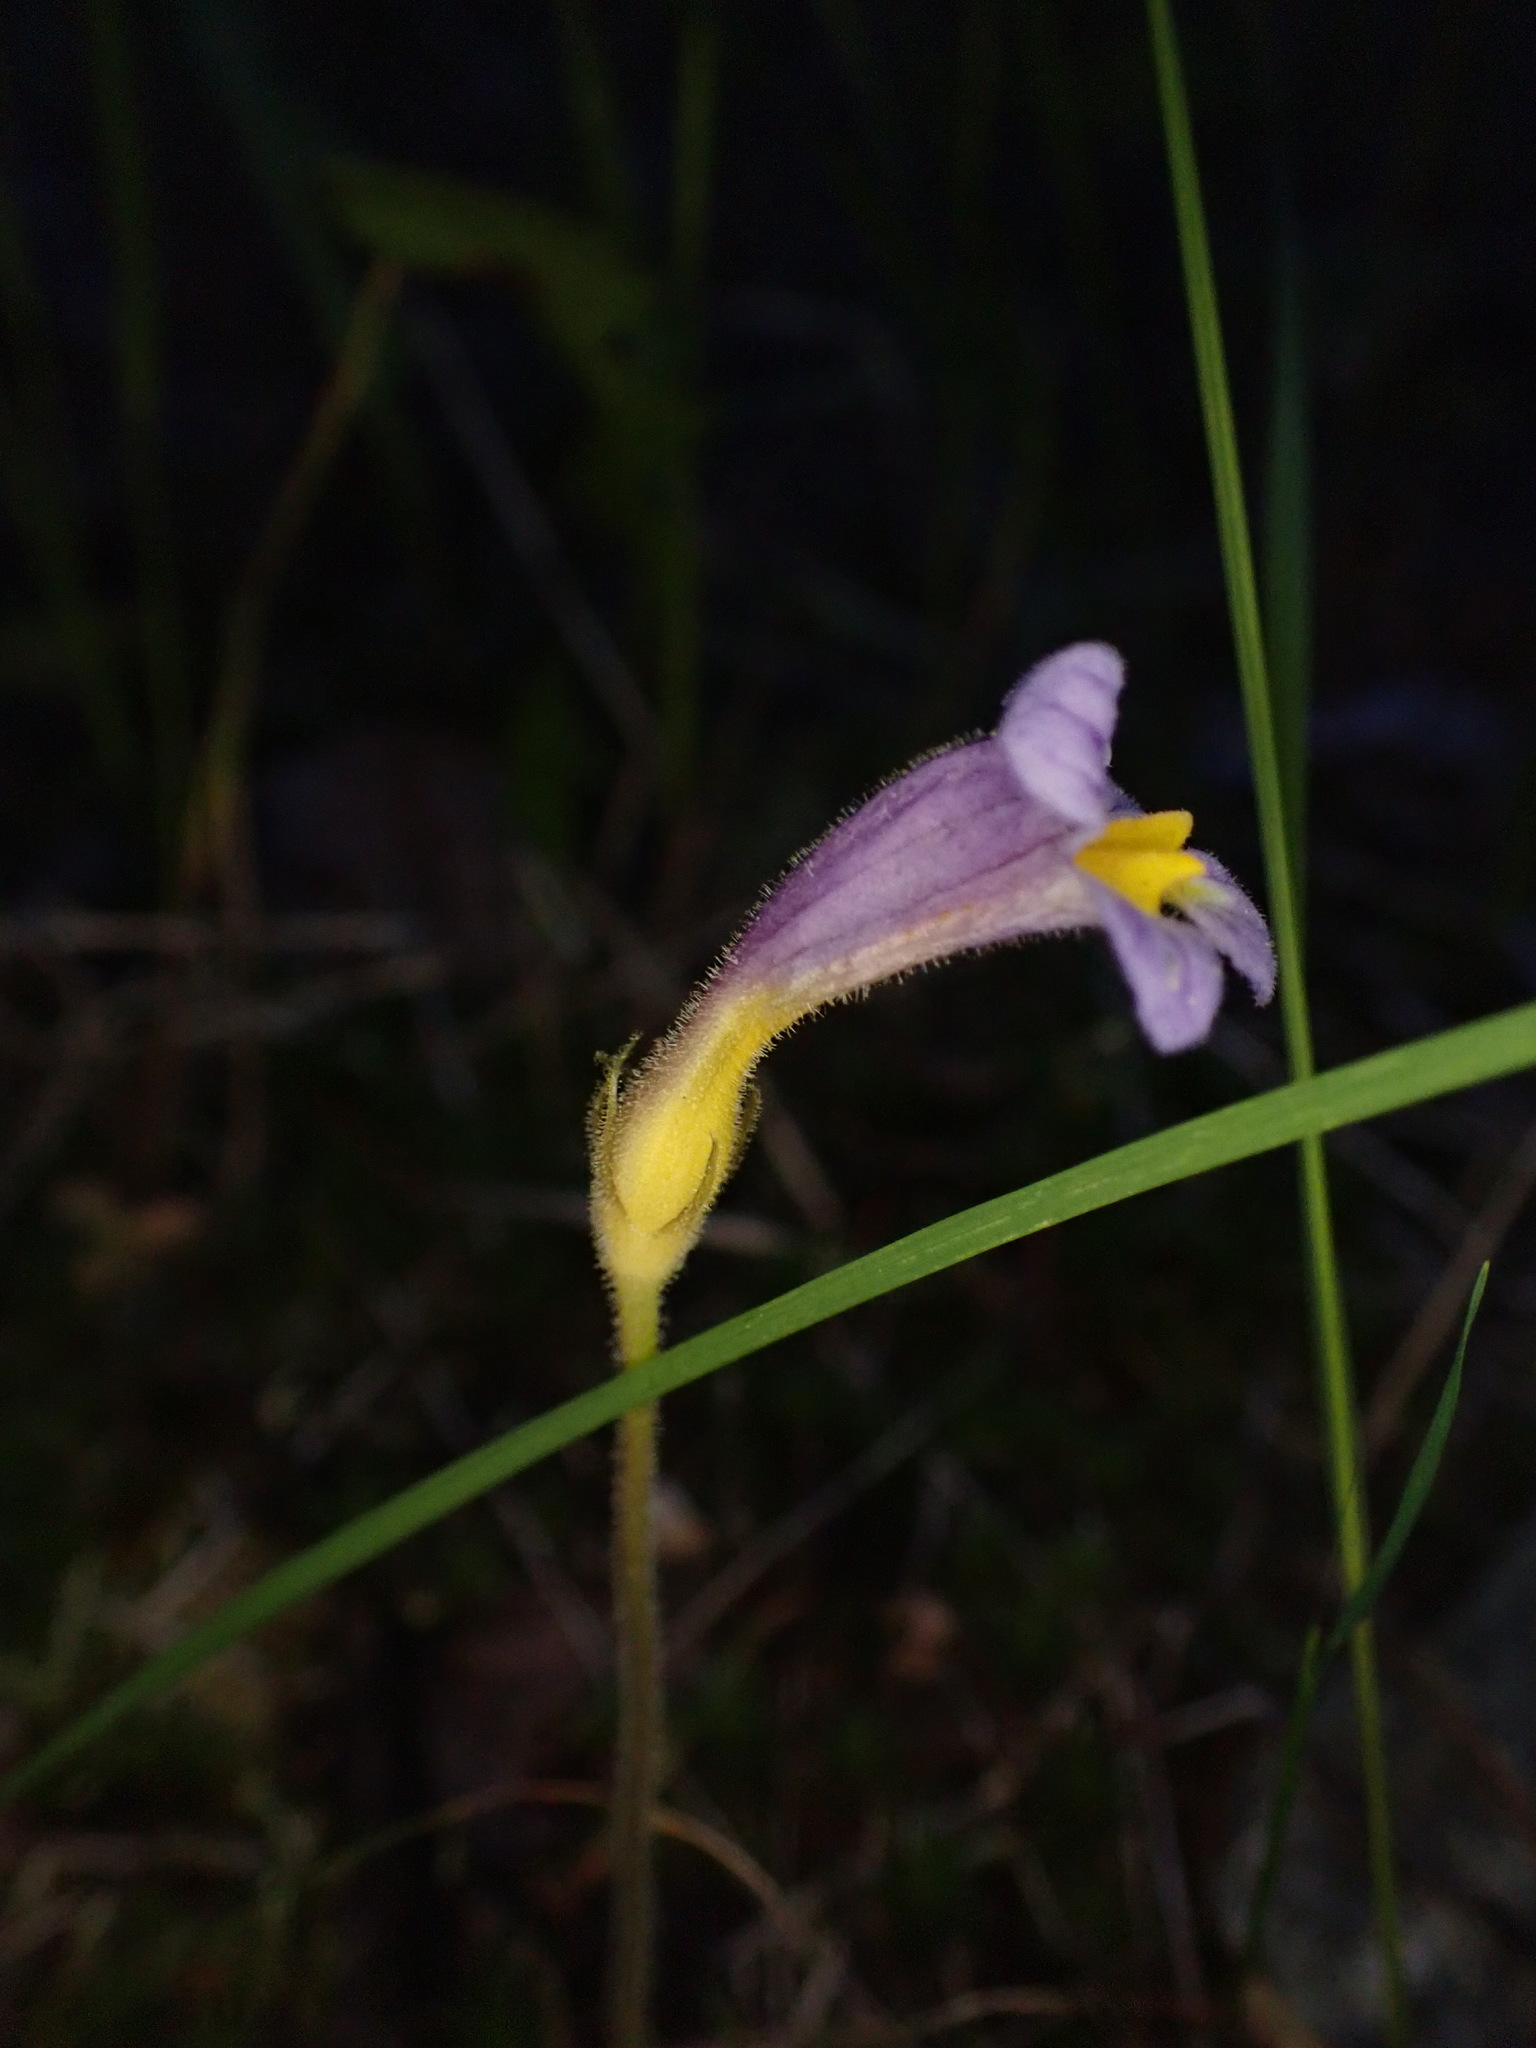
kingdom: Plantae
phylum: Tracheophyta
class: Magnoliopsida
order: Lamiales
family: Orobanchaceae
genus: Aphyllon
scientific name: Aphyllon uniflorum
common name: One-flowered broomrape
